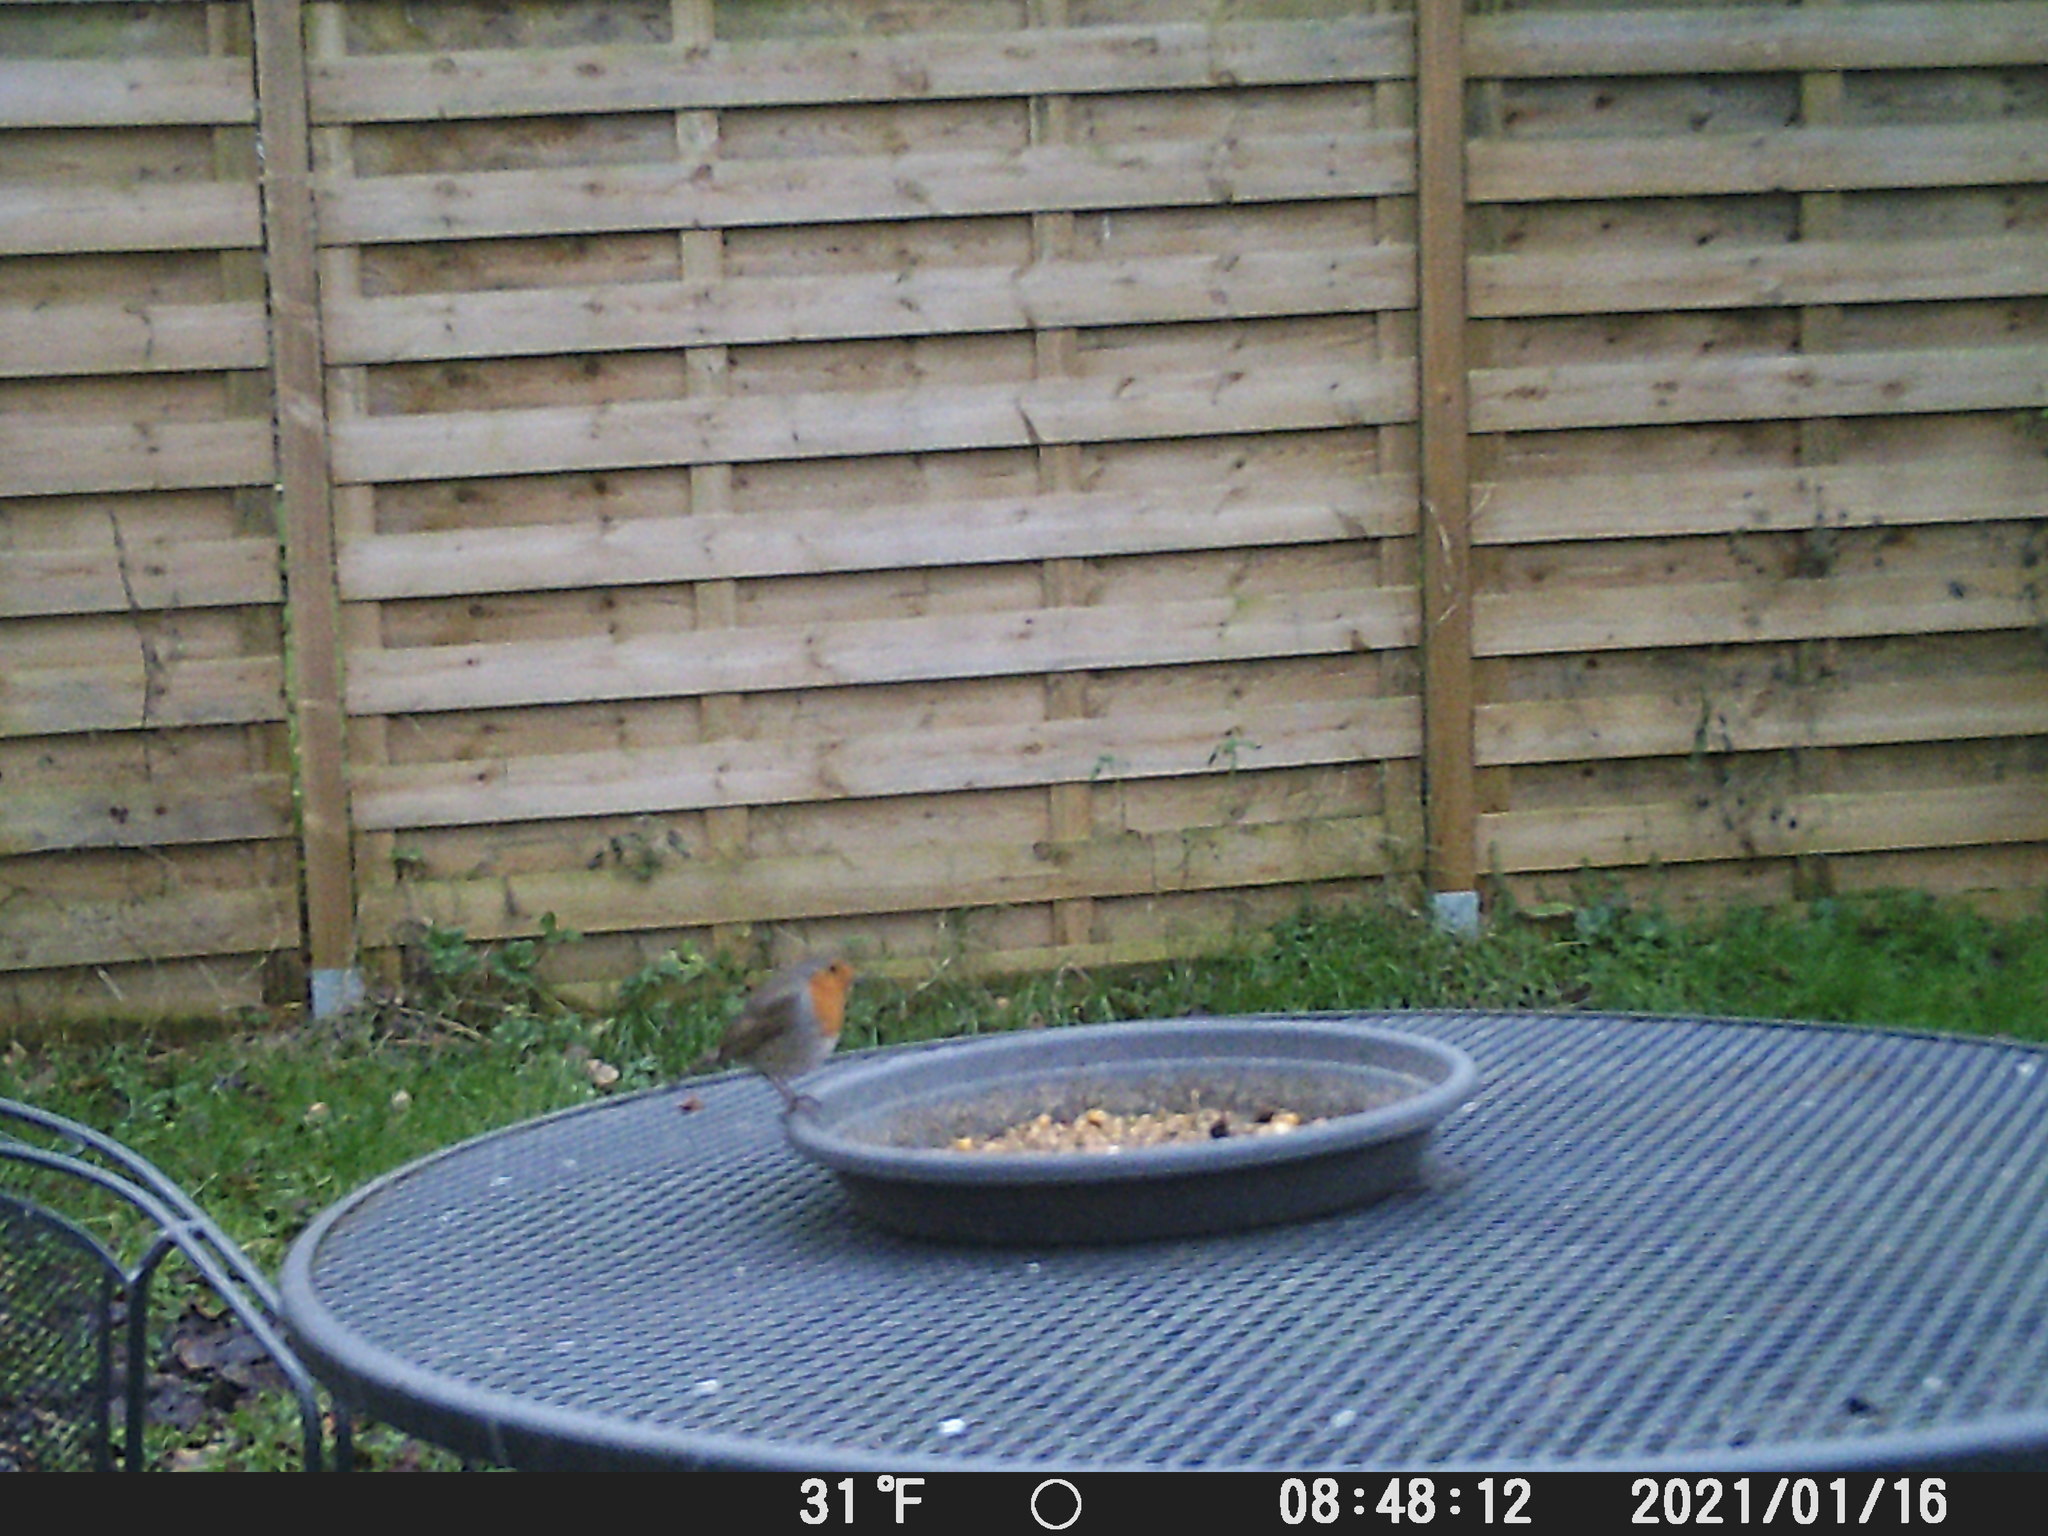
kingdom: Animalia
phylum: Chordata
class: Aves
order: Passeriformes
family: Muscicapidae
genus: Erithacus
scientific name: Erithacus rubecula
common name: European robin
